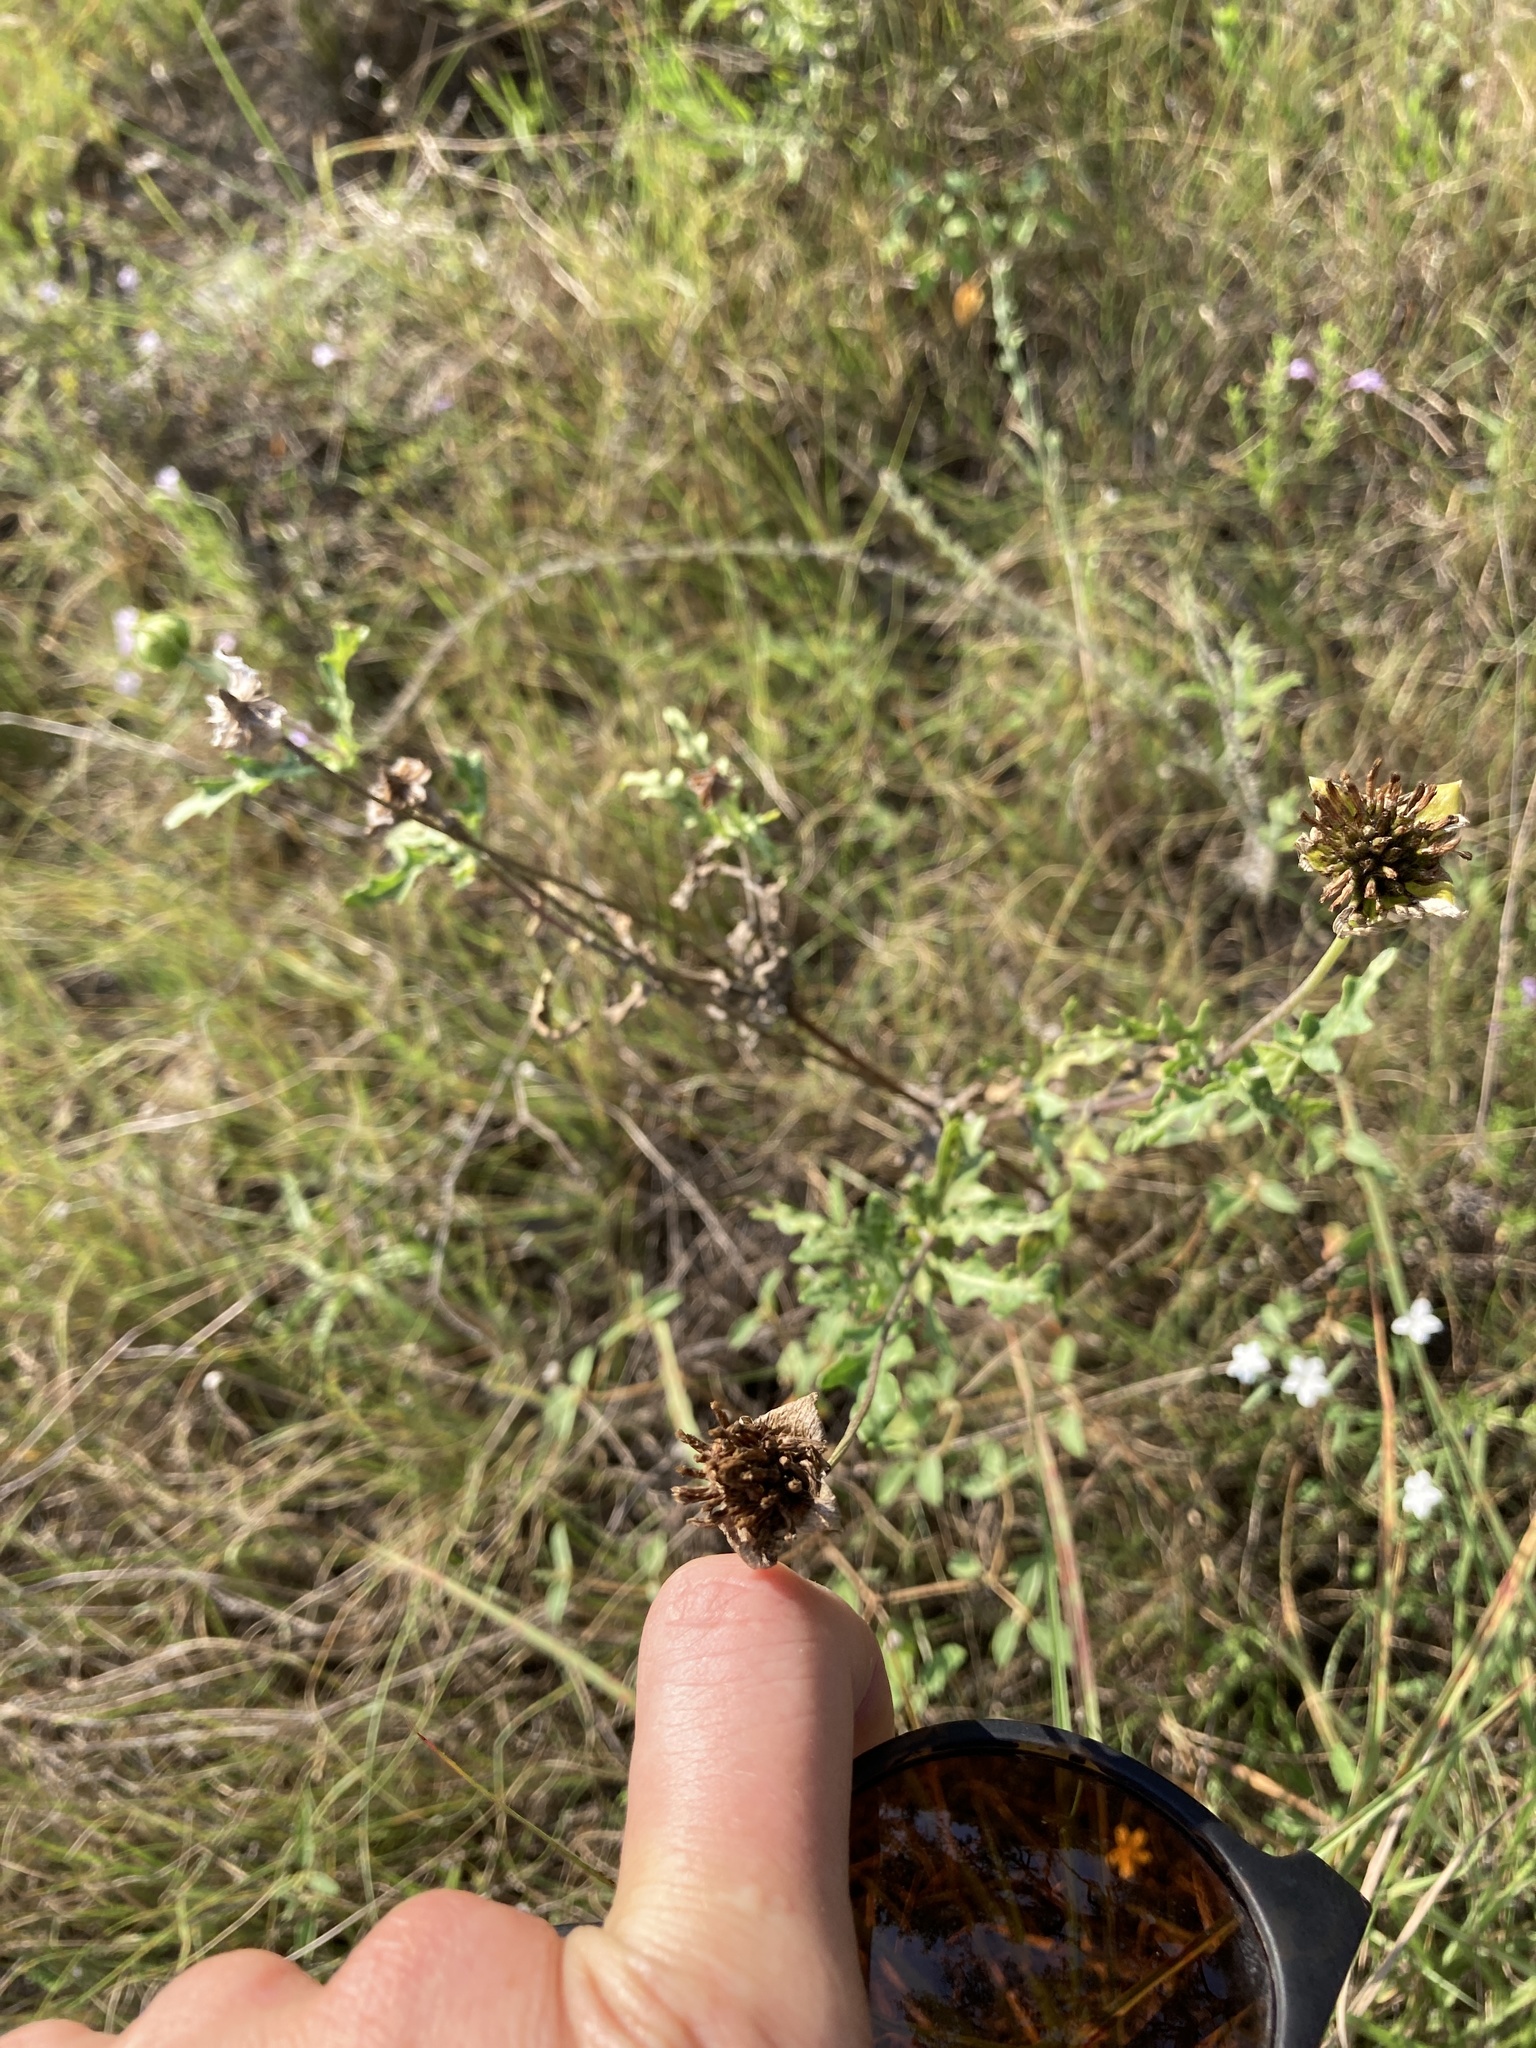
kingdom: Plantae
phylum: Tracheophyta
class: Magnoliopsida
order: Asterales
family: Asteraceae
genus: Tetragonotheca
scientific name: Tetragonotheca texana
